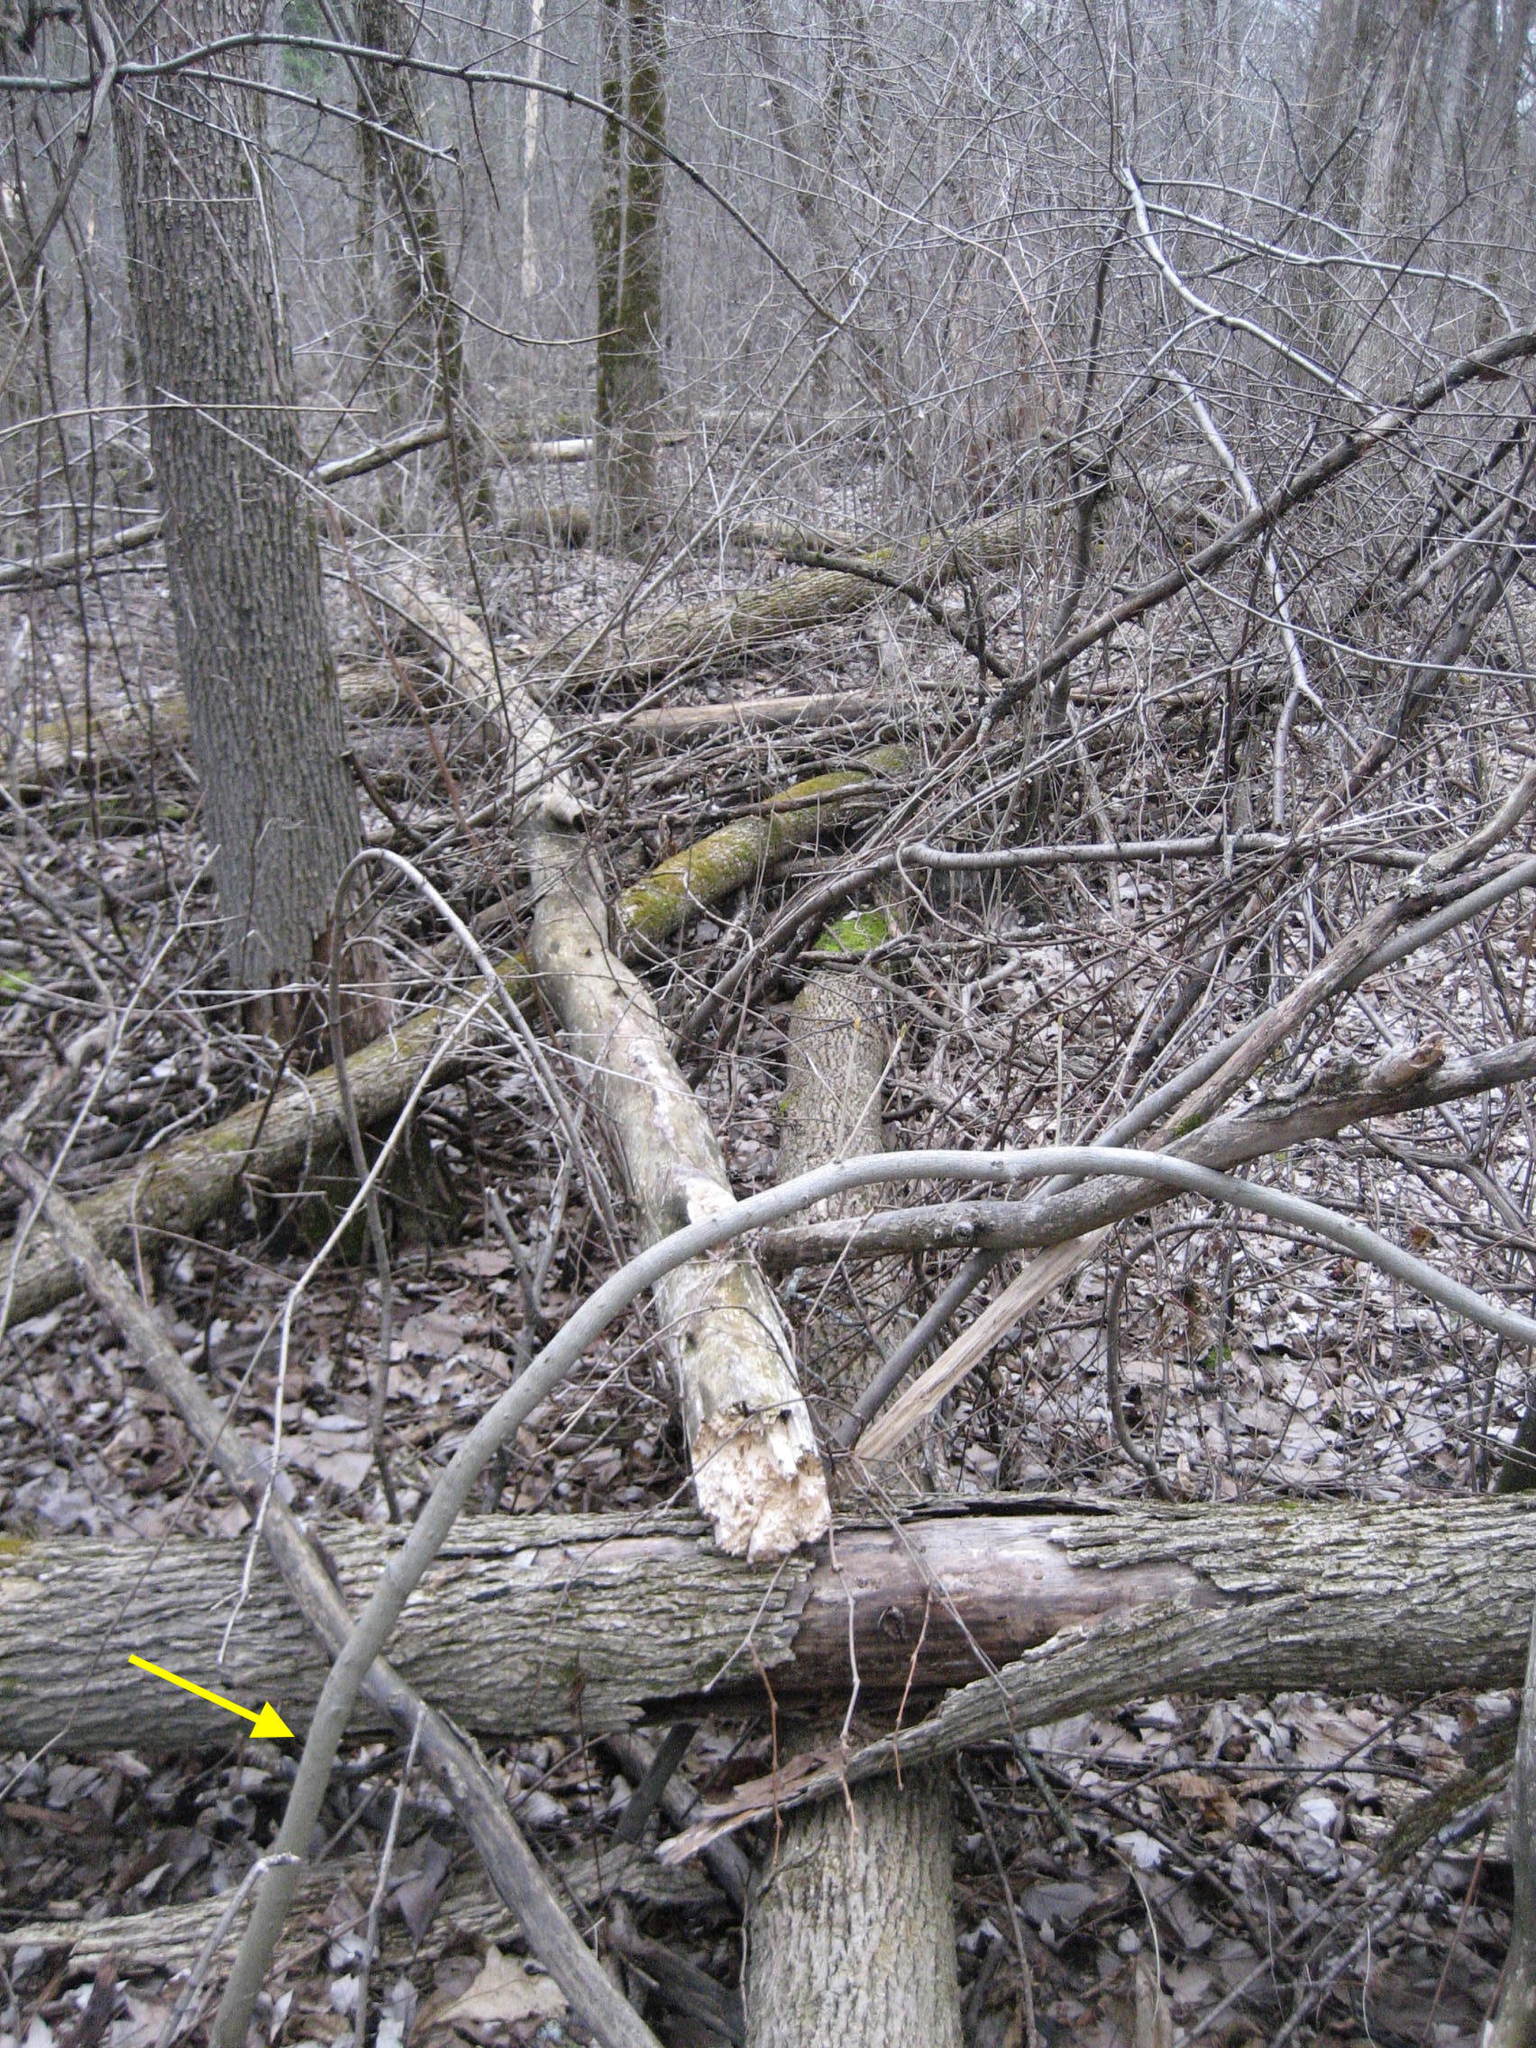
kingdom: Plantae
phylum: Tracheophyta
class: Magnoliopsida
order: Fagales
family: Juglandaceae
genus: Carya
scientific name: Carya cordiformis
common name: Bitternut hickory
